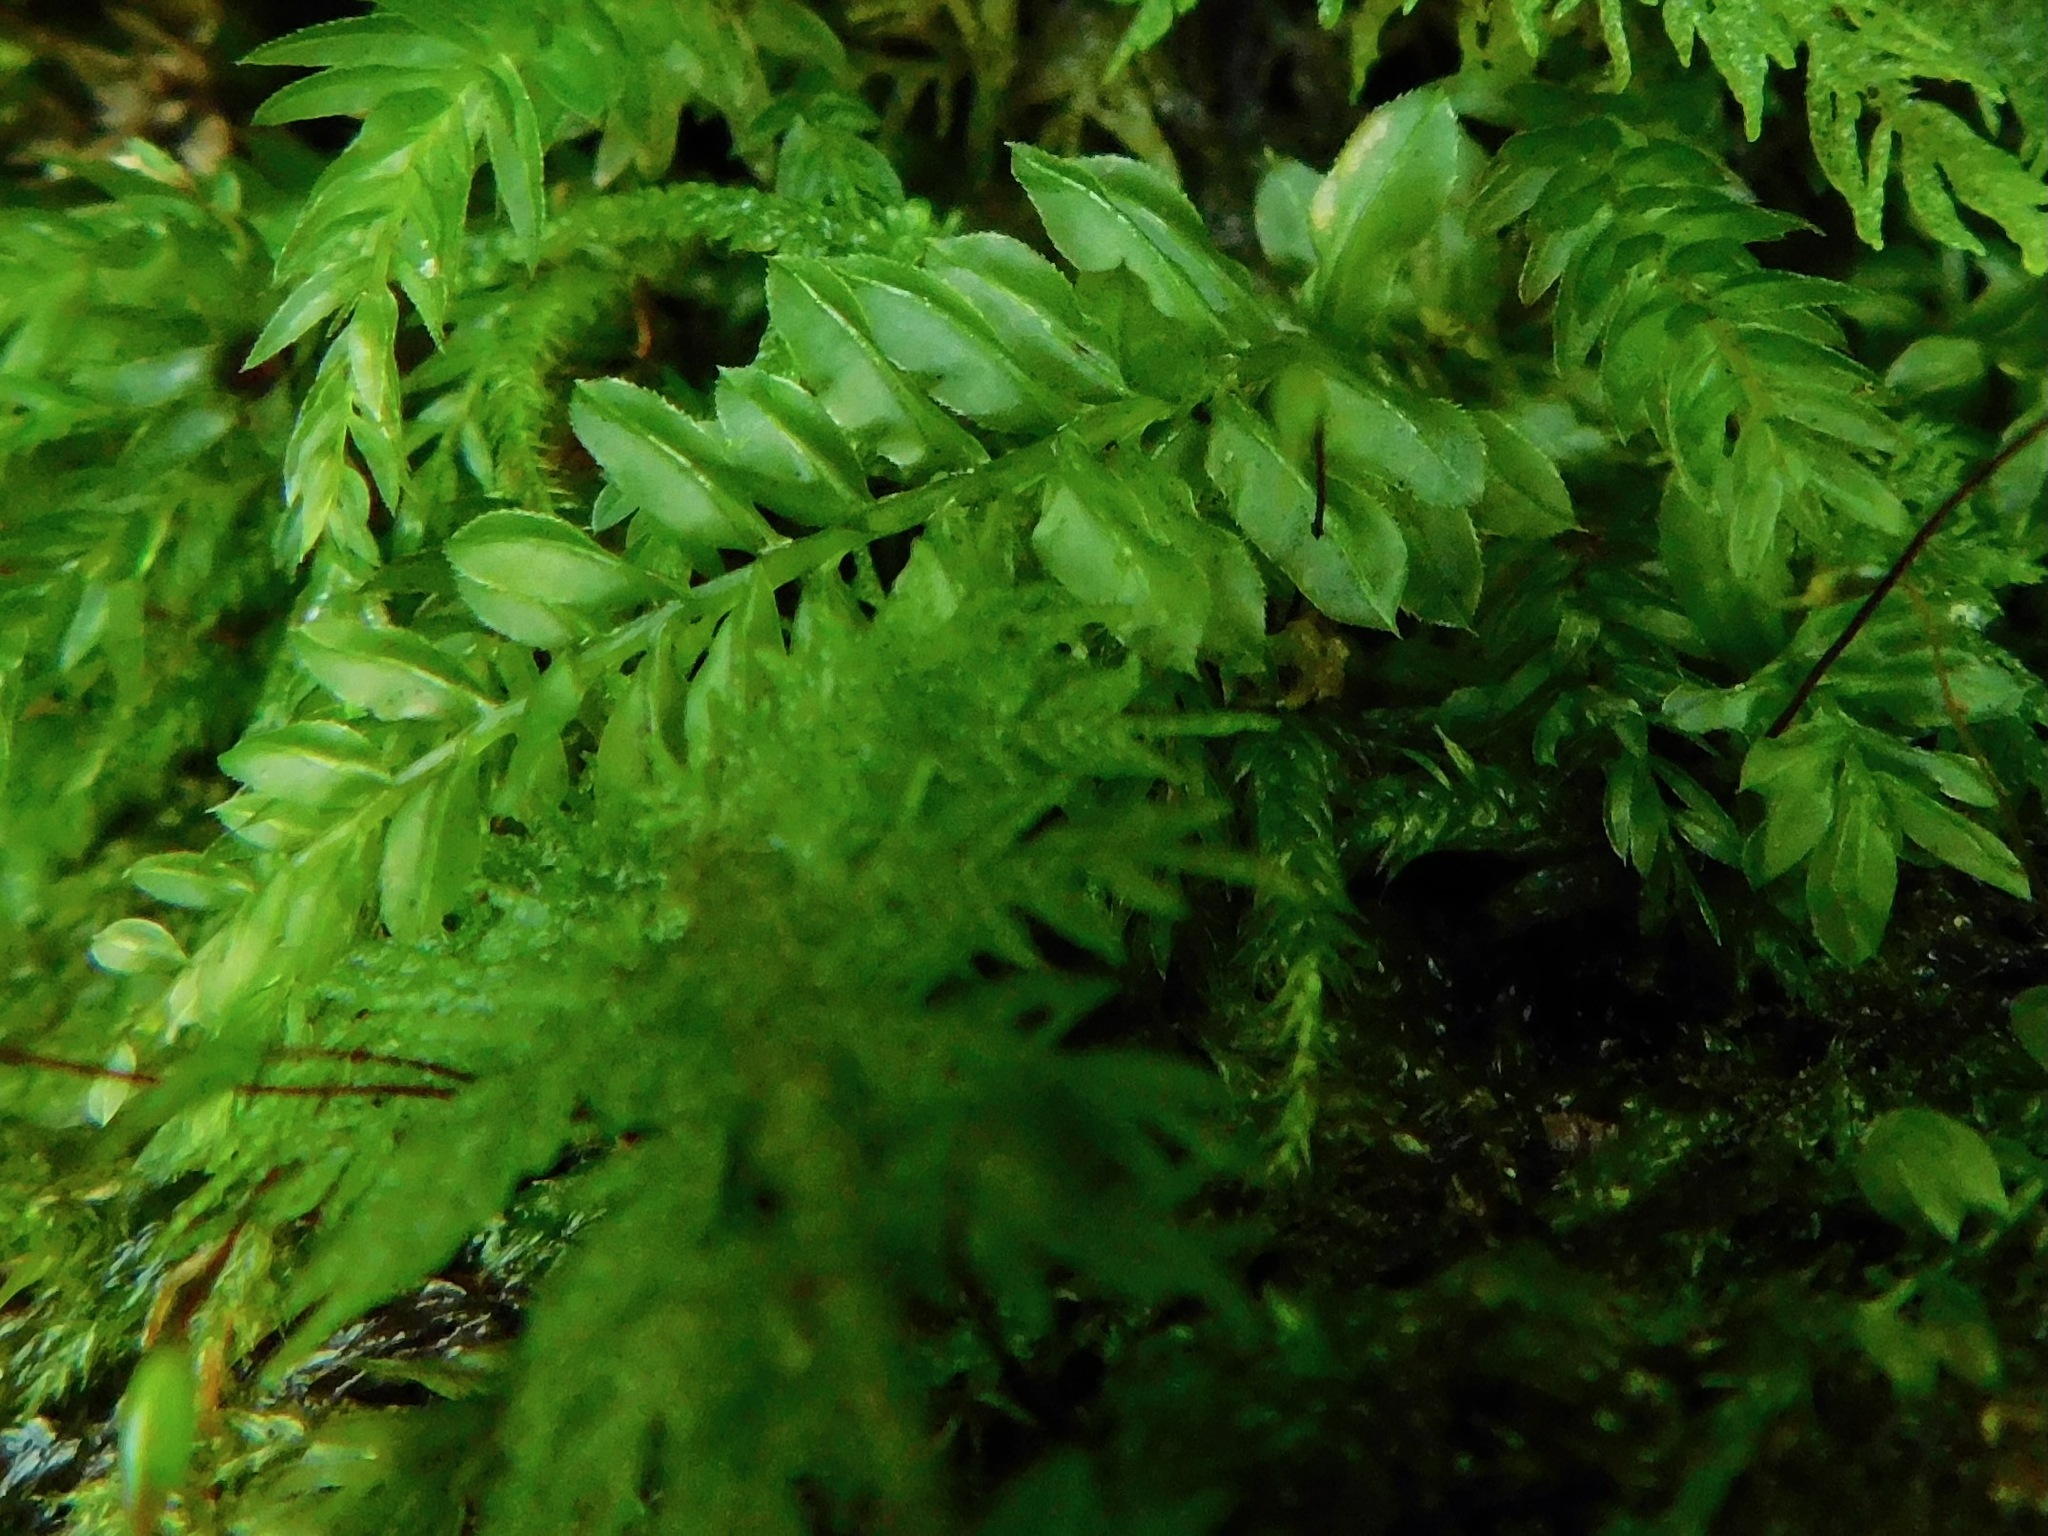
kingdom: Plantae
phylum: Bryophyta
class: Bryopsida
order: Bryales
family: Mniaceae
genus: Plagiomnium
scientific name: Plagiomnium ciliare
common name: Toothed leafy moss
